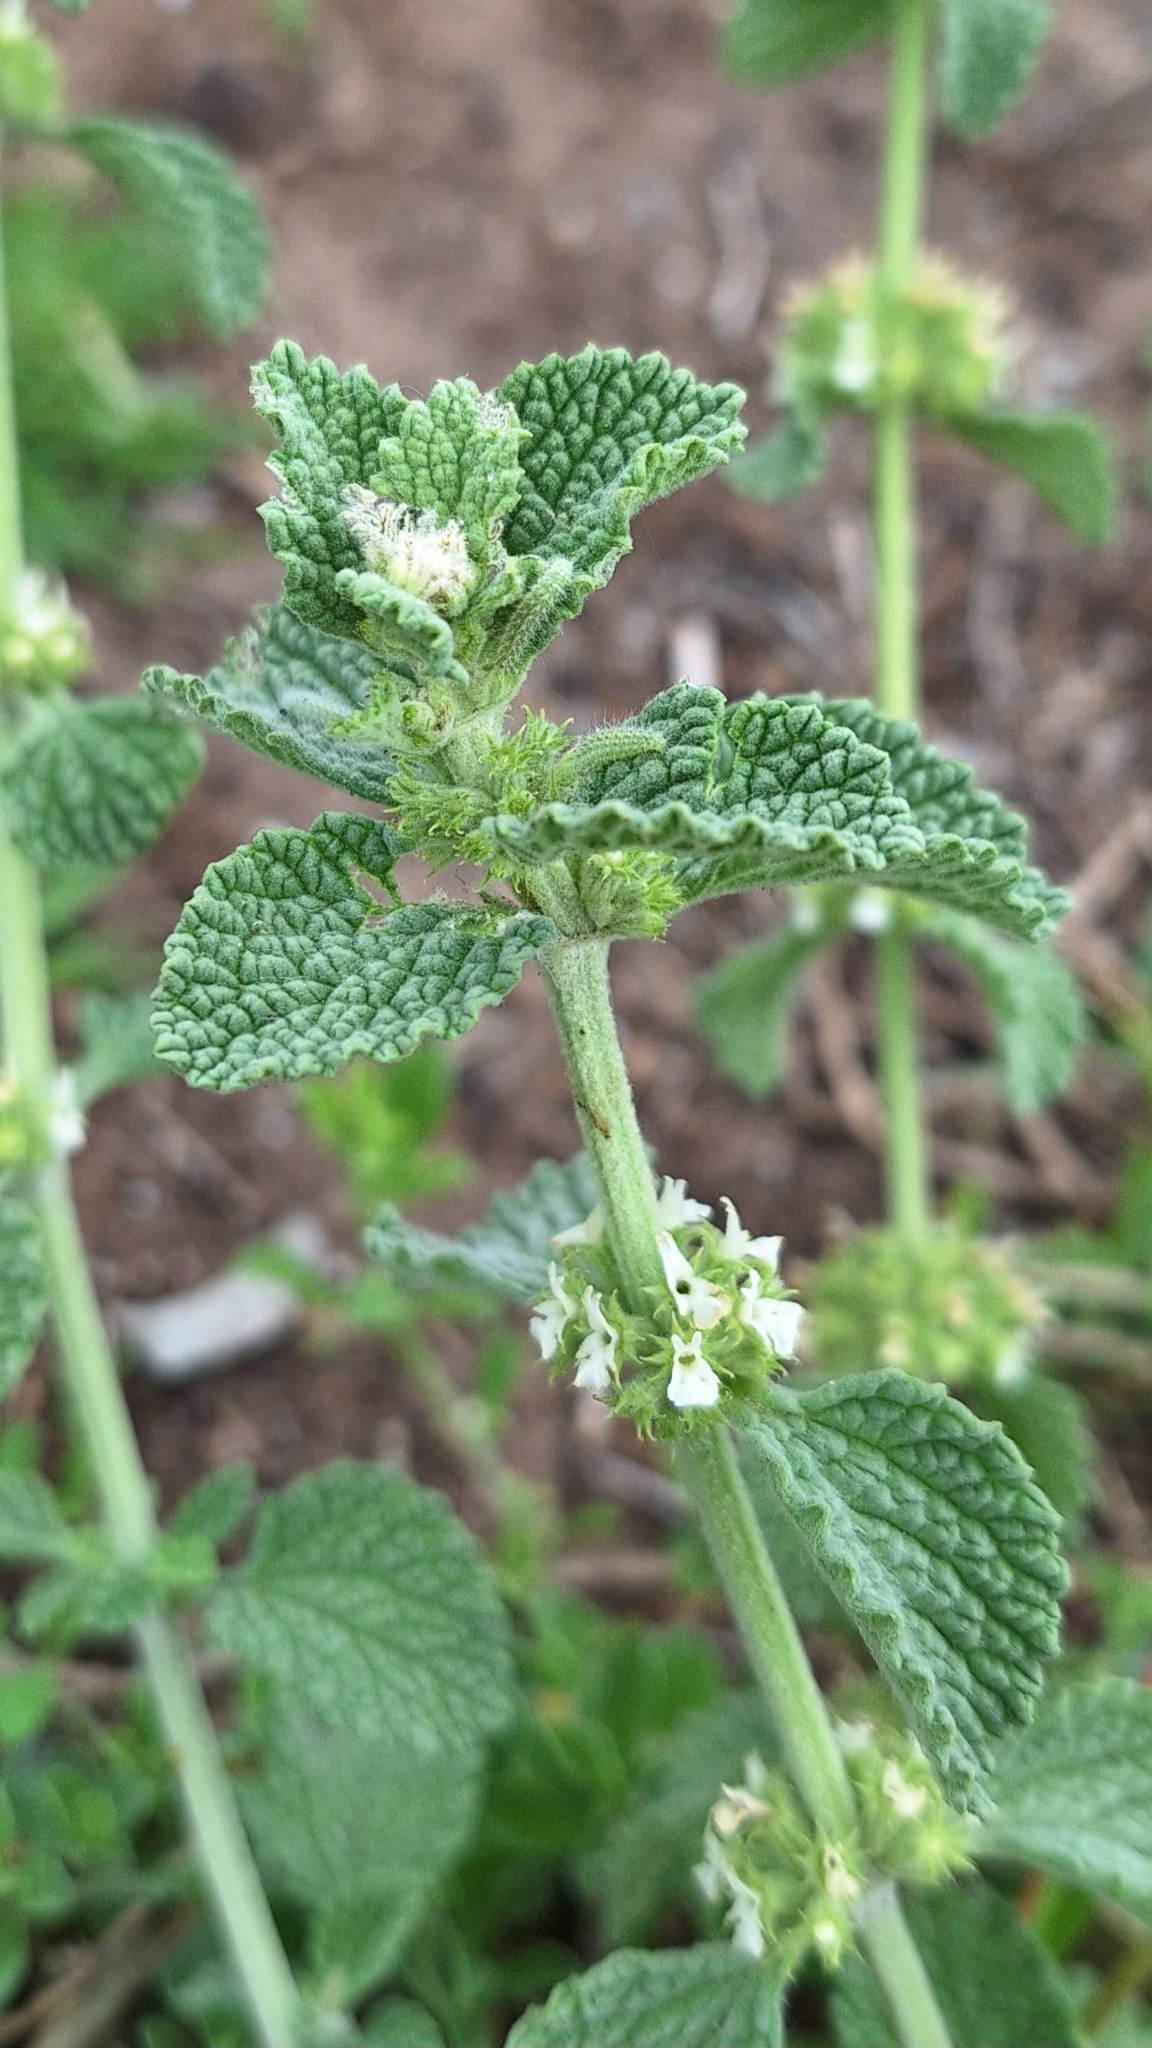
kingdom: Plantae
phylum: Tracheophyta
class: Magnoliopsida
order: Lamiales
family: Lamiaceae
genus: Marrubium
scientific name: Marrubium vulgare
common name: Horehound
